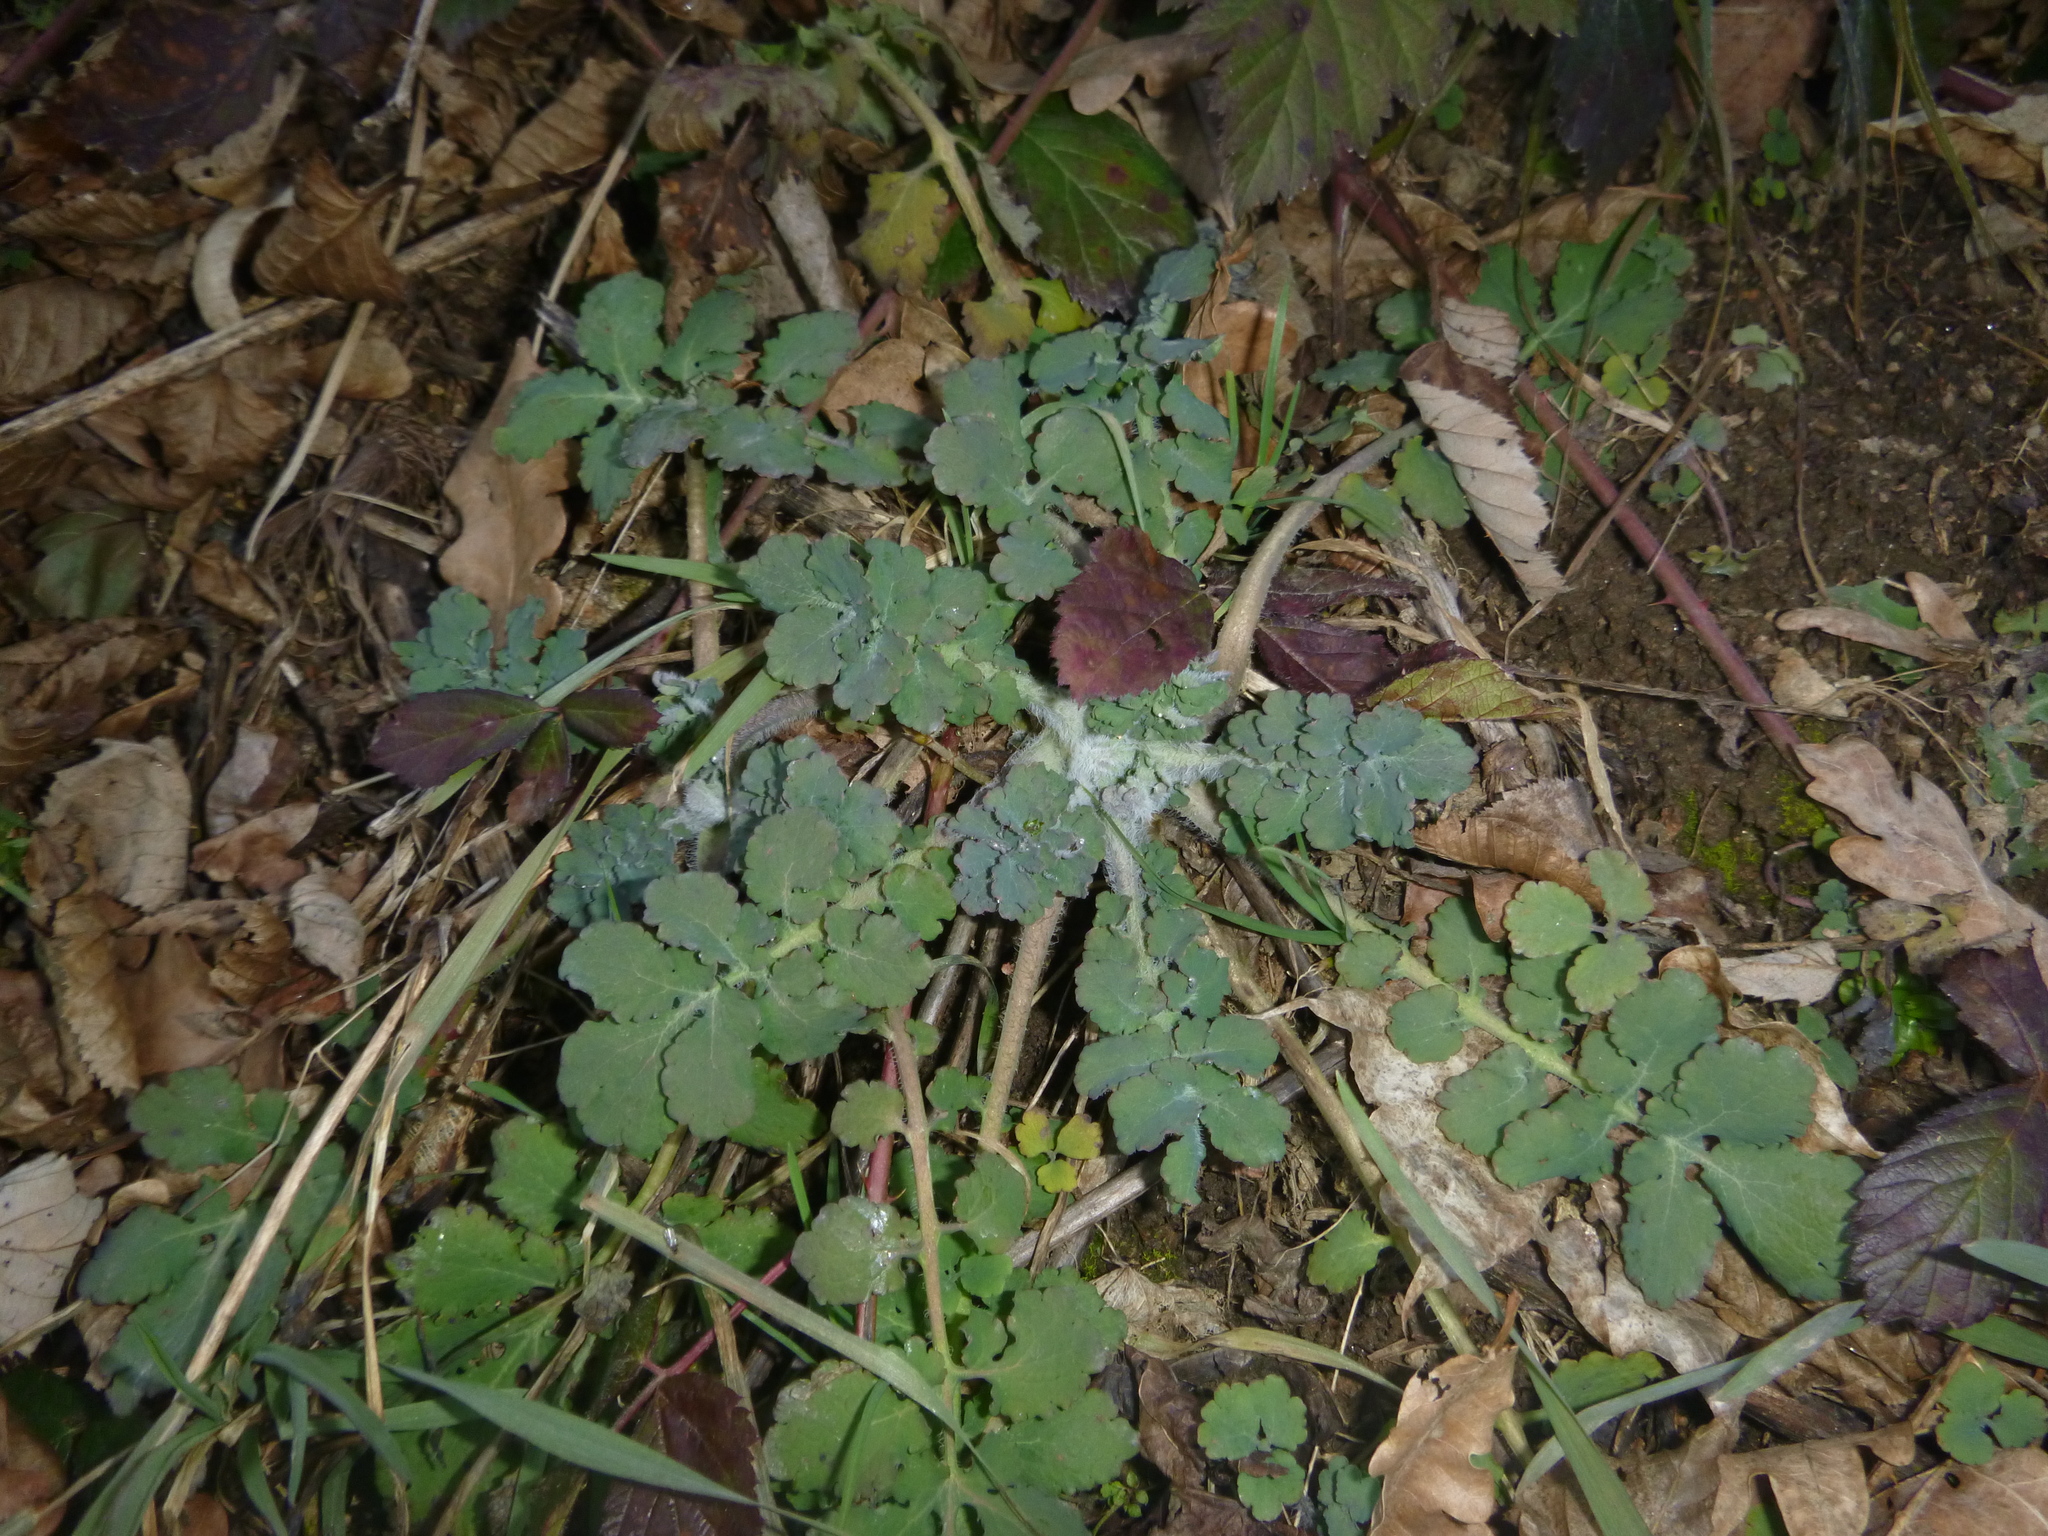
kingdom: Plantae
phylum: Tracheophyta
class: Magnoliopsida
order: Ranunculales
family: Papaveraceae
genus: Chelidonium
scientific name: Chelidonium majus
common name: Greater celandine
